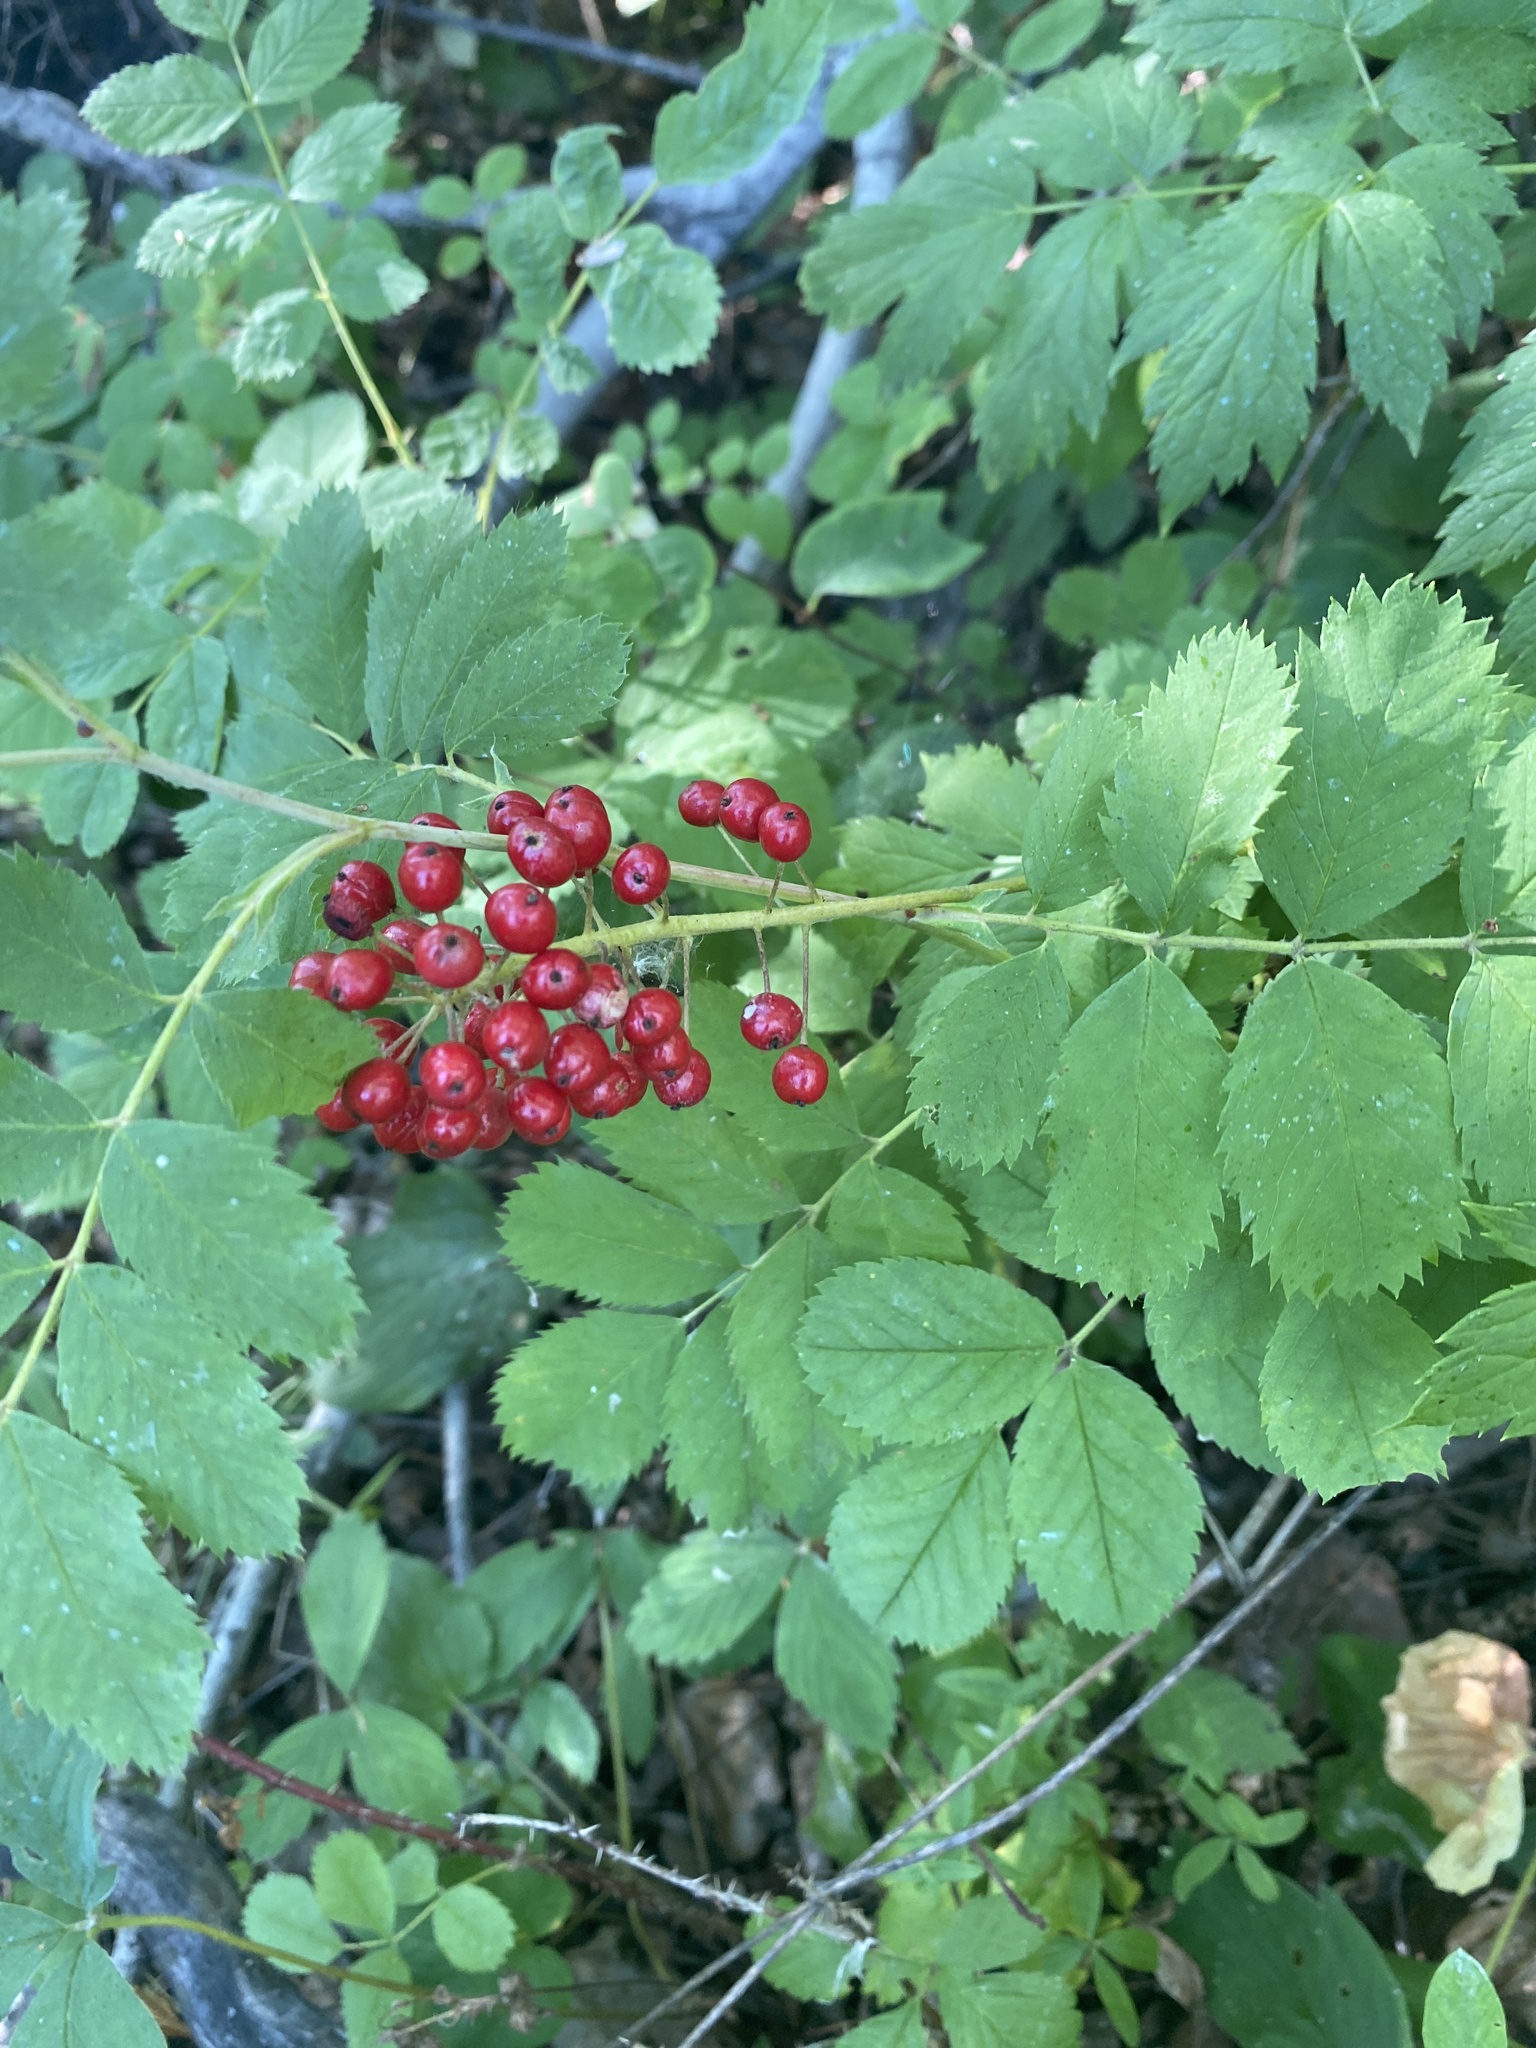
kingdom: Plantae
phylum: Tracheophyta
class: Magnoliopsida
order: Ranunculales
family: Ranunculaceae
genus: Actaea
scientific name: Actaea rubra
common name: Red baneberry
